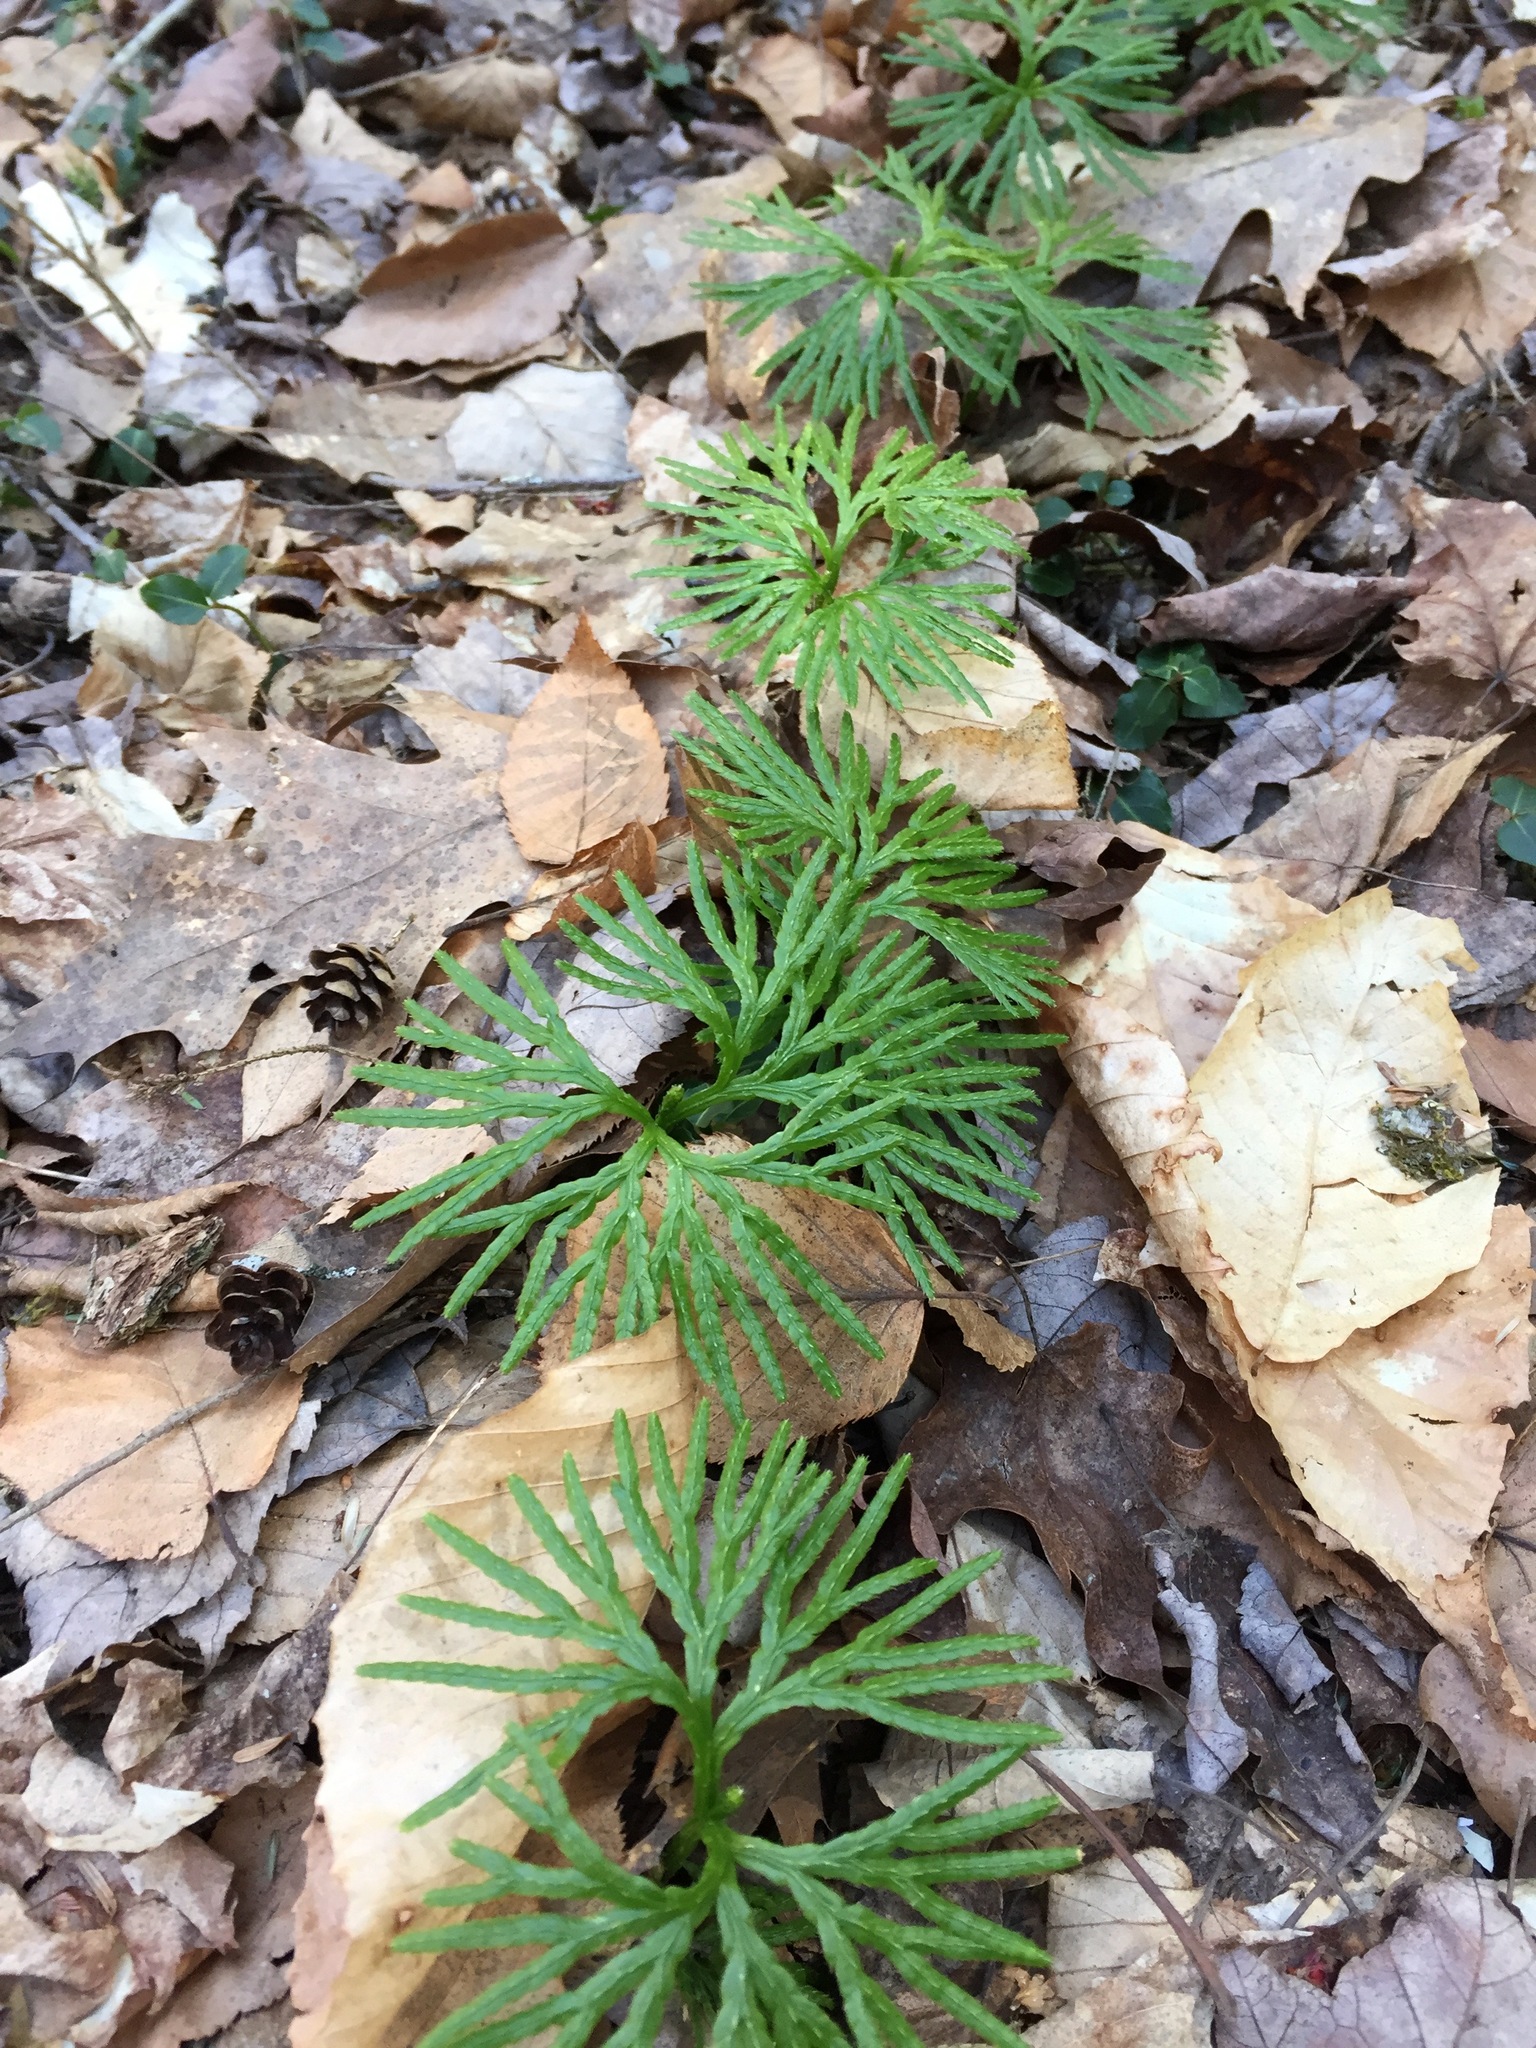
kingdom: Plantae
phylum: Tracheophyta
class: Lycopodiopsida
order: Lycopodiales
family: Lycopodiaceae
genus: Diphasiastrum
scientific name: Diphasiastrum digitatum
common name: Southern running-pine
